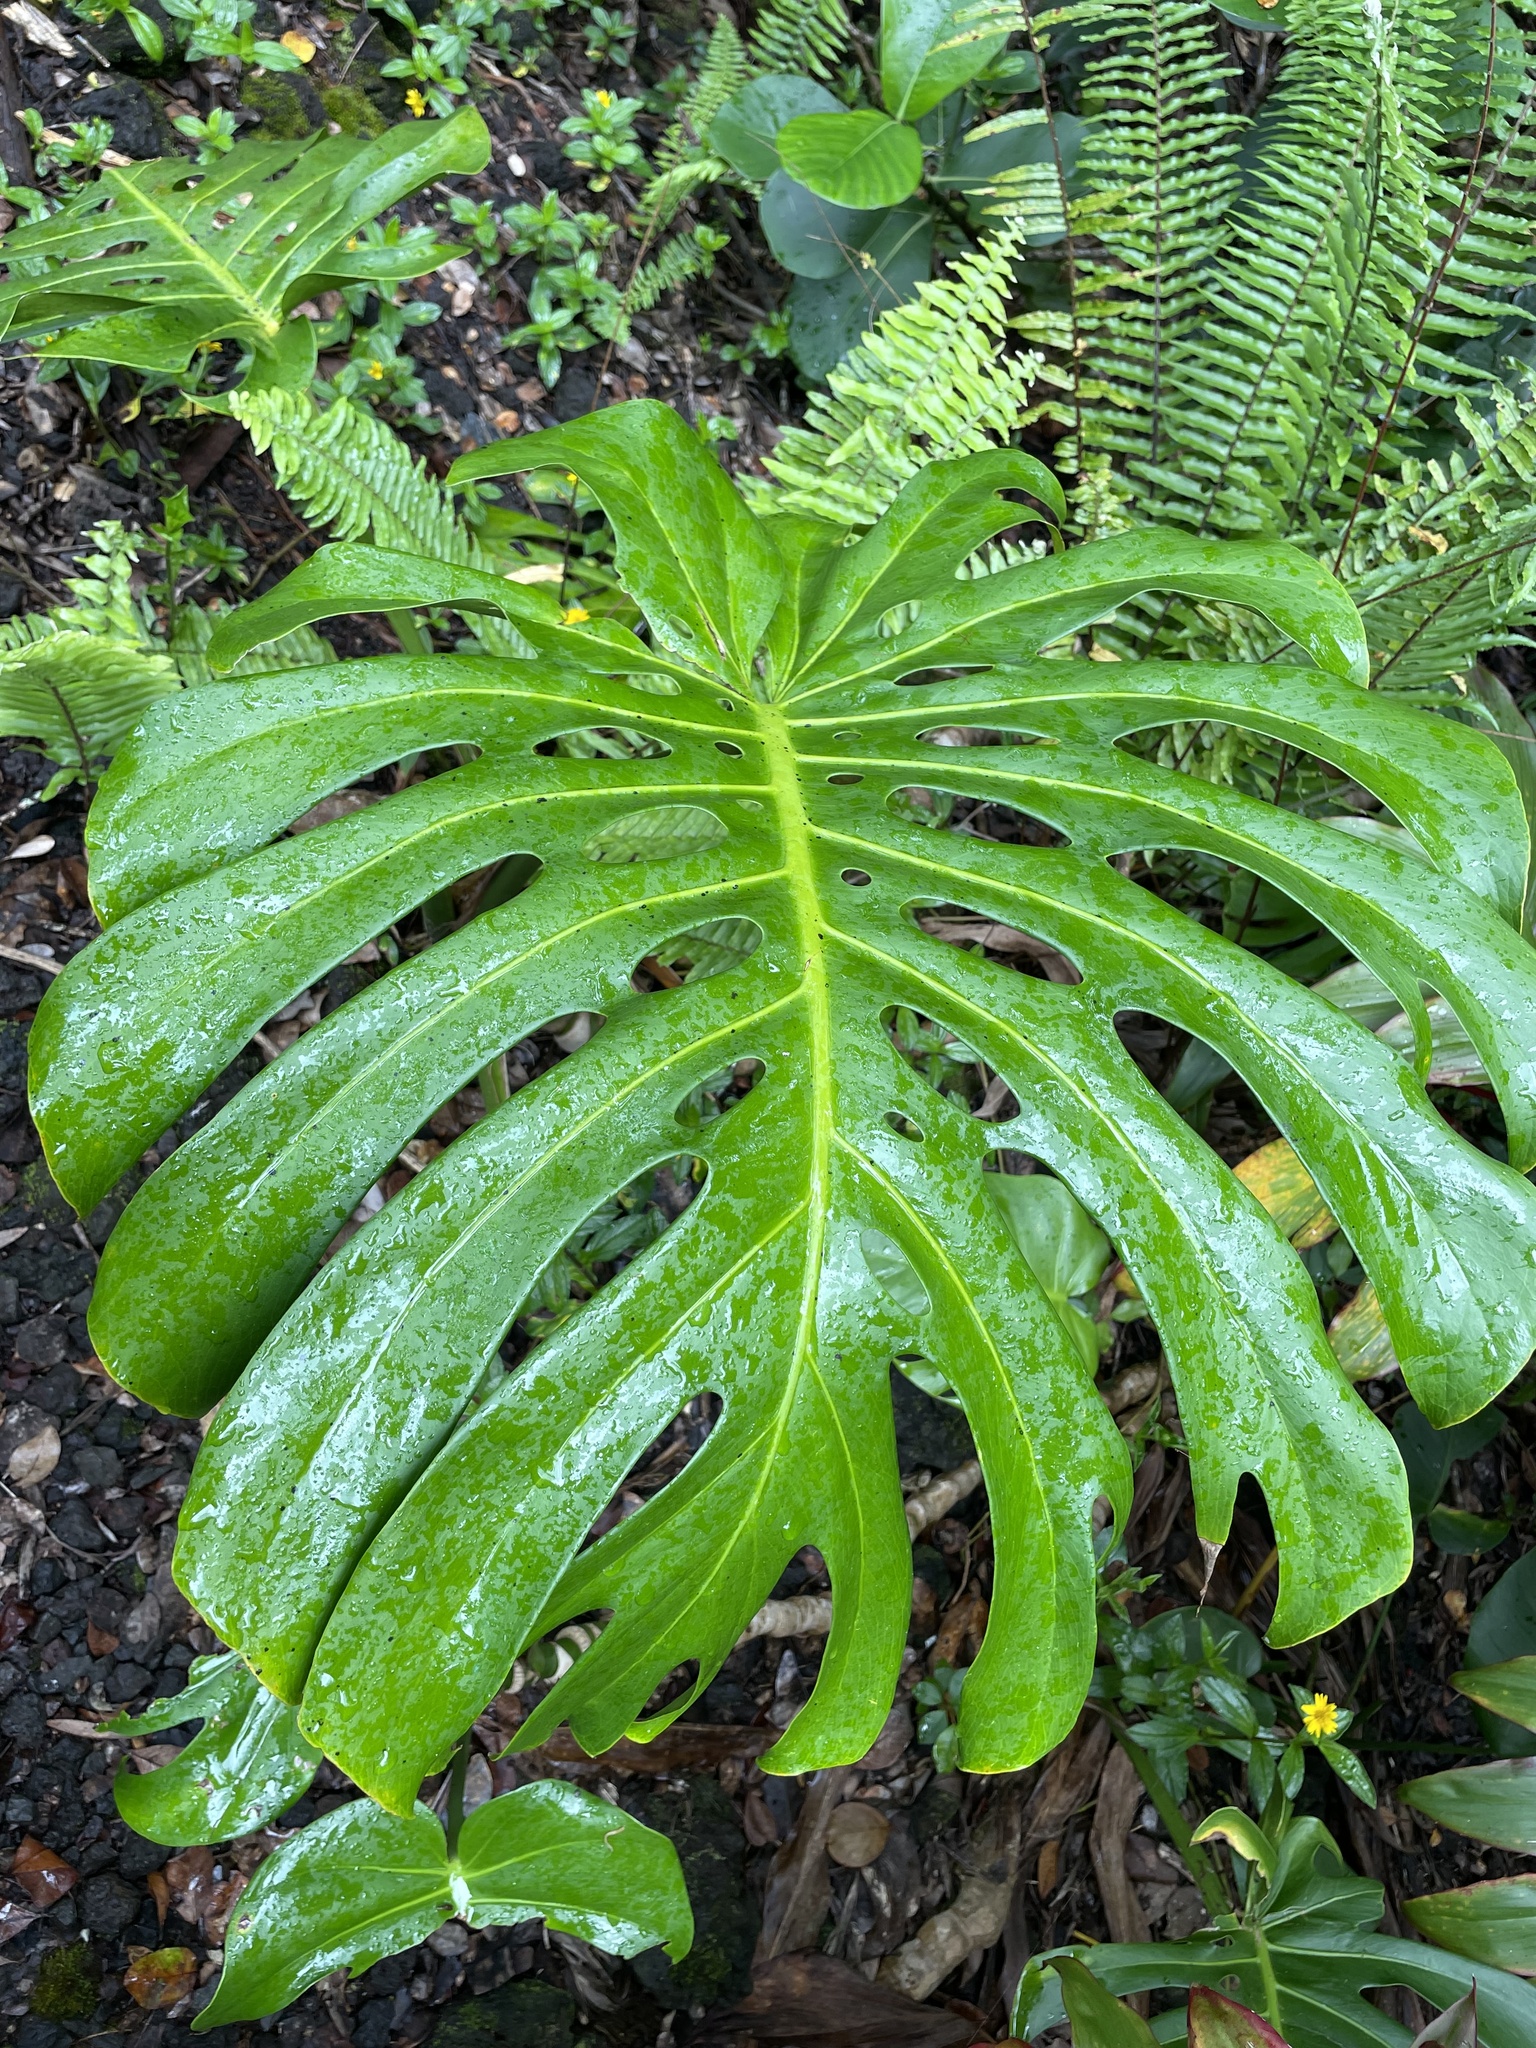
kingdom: Plantae
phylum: Tracheophyta
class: Liliopsida
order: Alismatales
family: Araceae
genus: Monstera
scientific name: Monstera deliciosa
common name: Cut-leaf-philodendron
